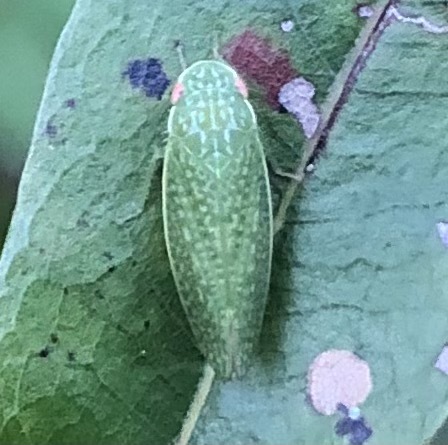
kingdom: Animalia
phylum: Arthropoda
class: Insecta
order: Hemiptera
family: Cicadellidae
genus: Rugosana
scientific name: Rugosana querci
